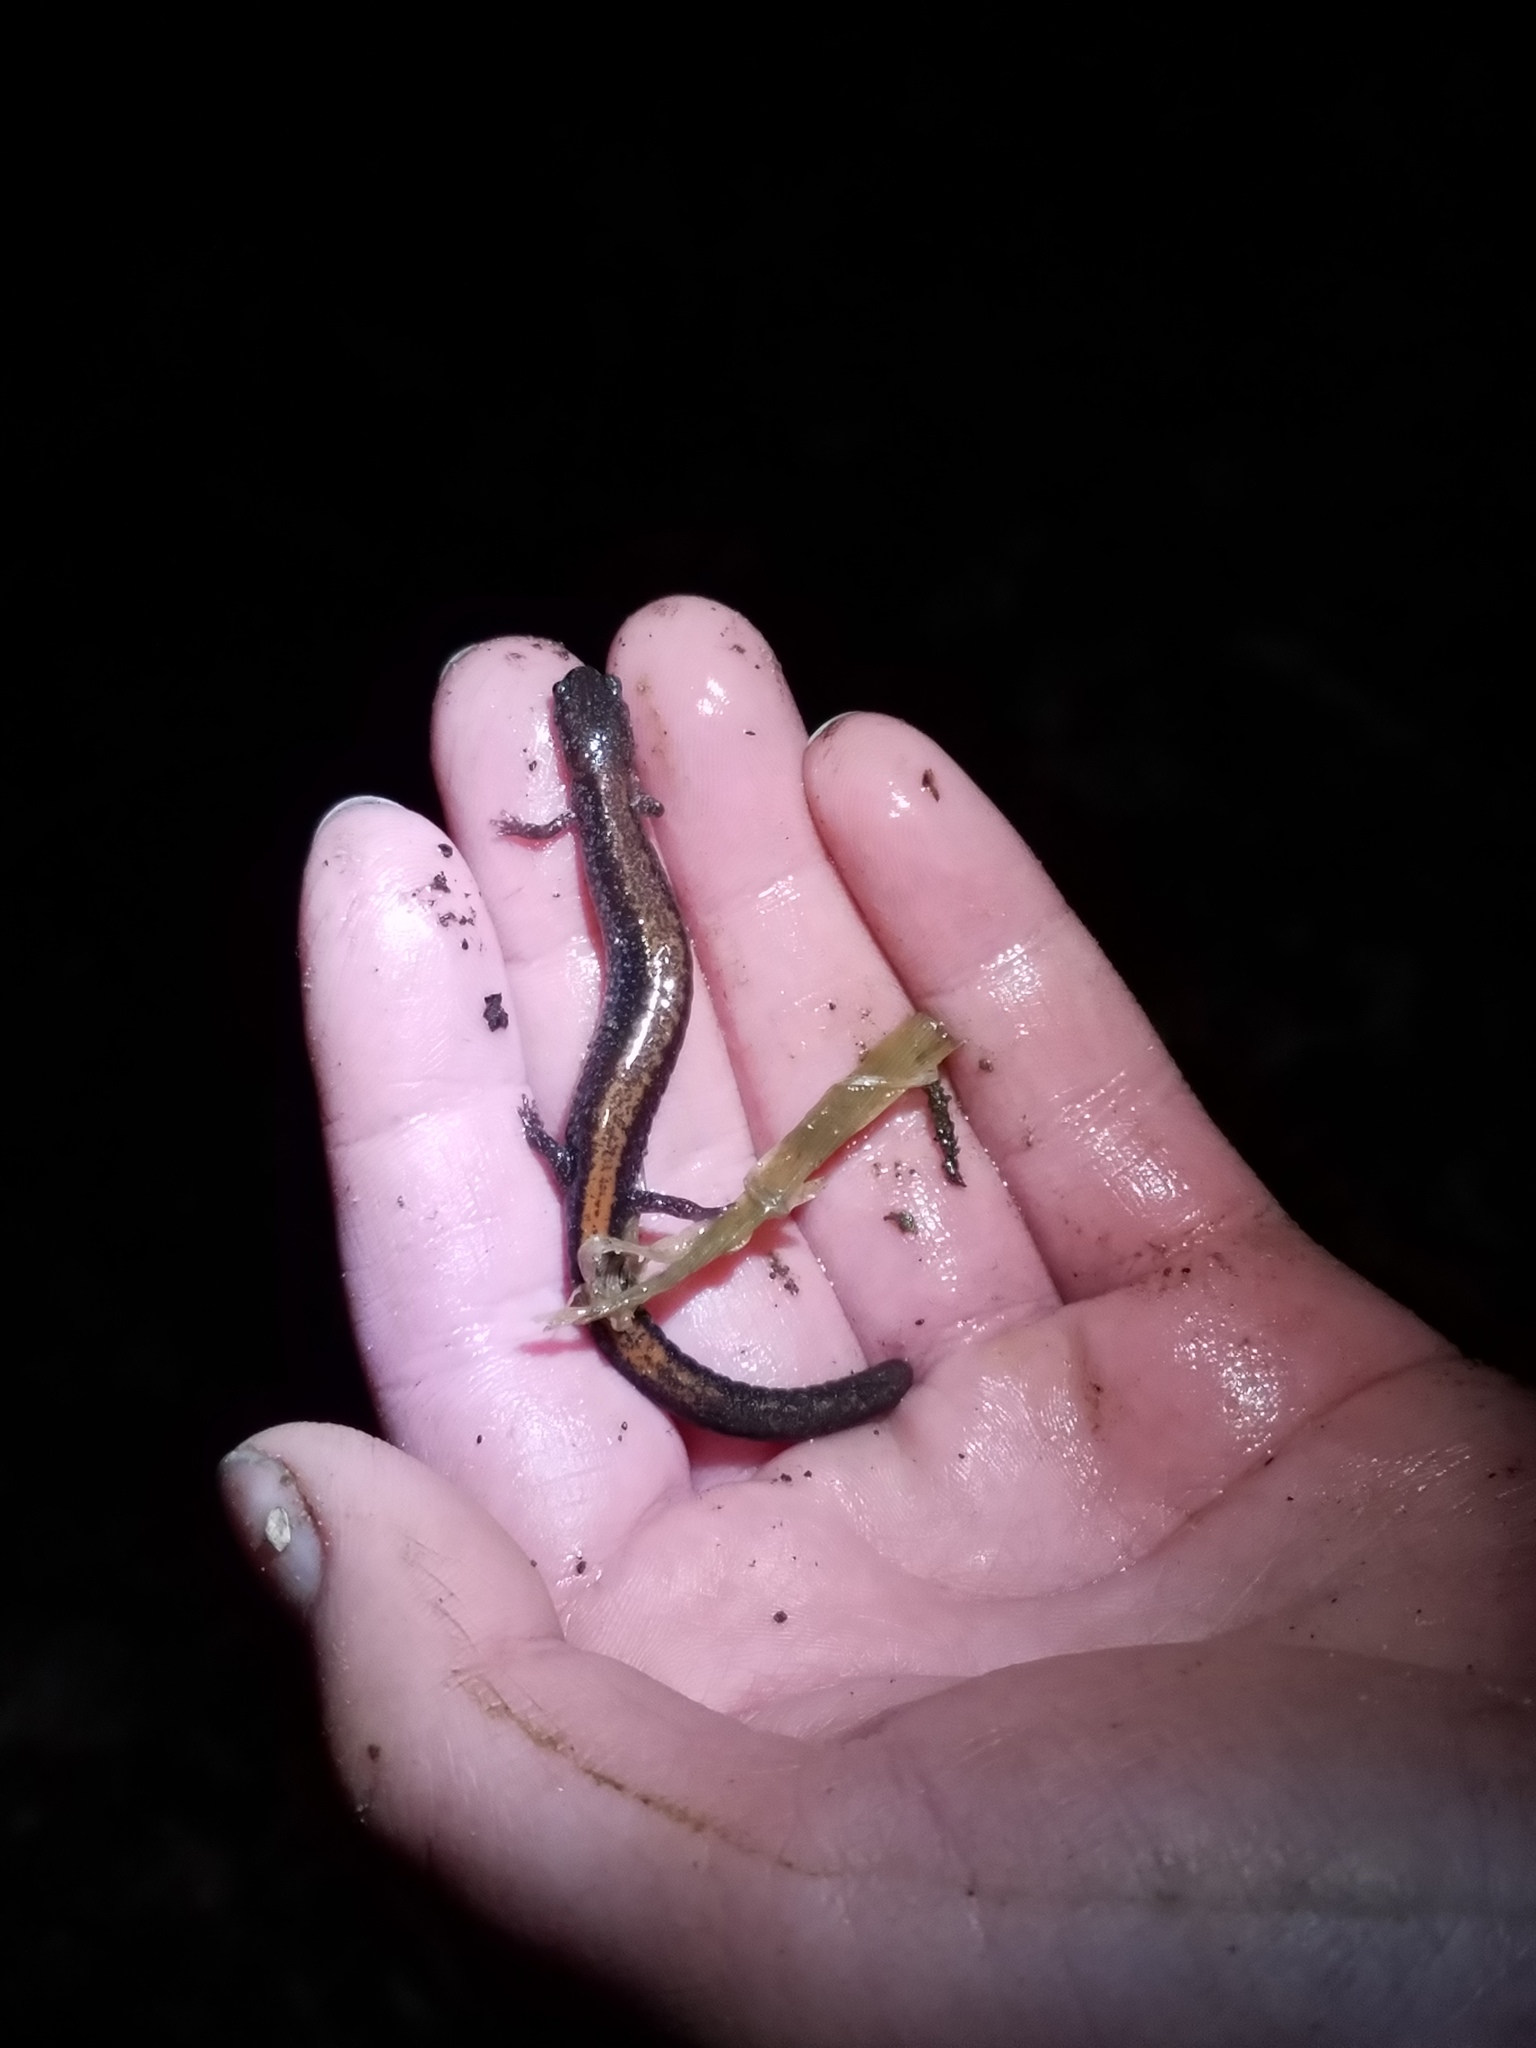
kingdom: Animalia
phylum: Chordata
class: Amphibia
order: Caudata
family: Plethodontidae
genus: Plethodon
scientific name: Plethodon cinereus
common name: Redback salamander
